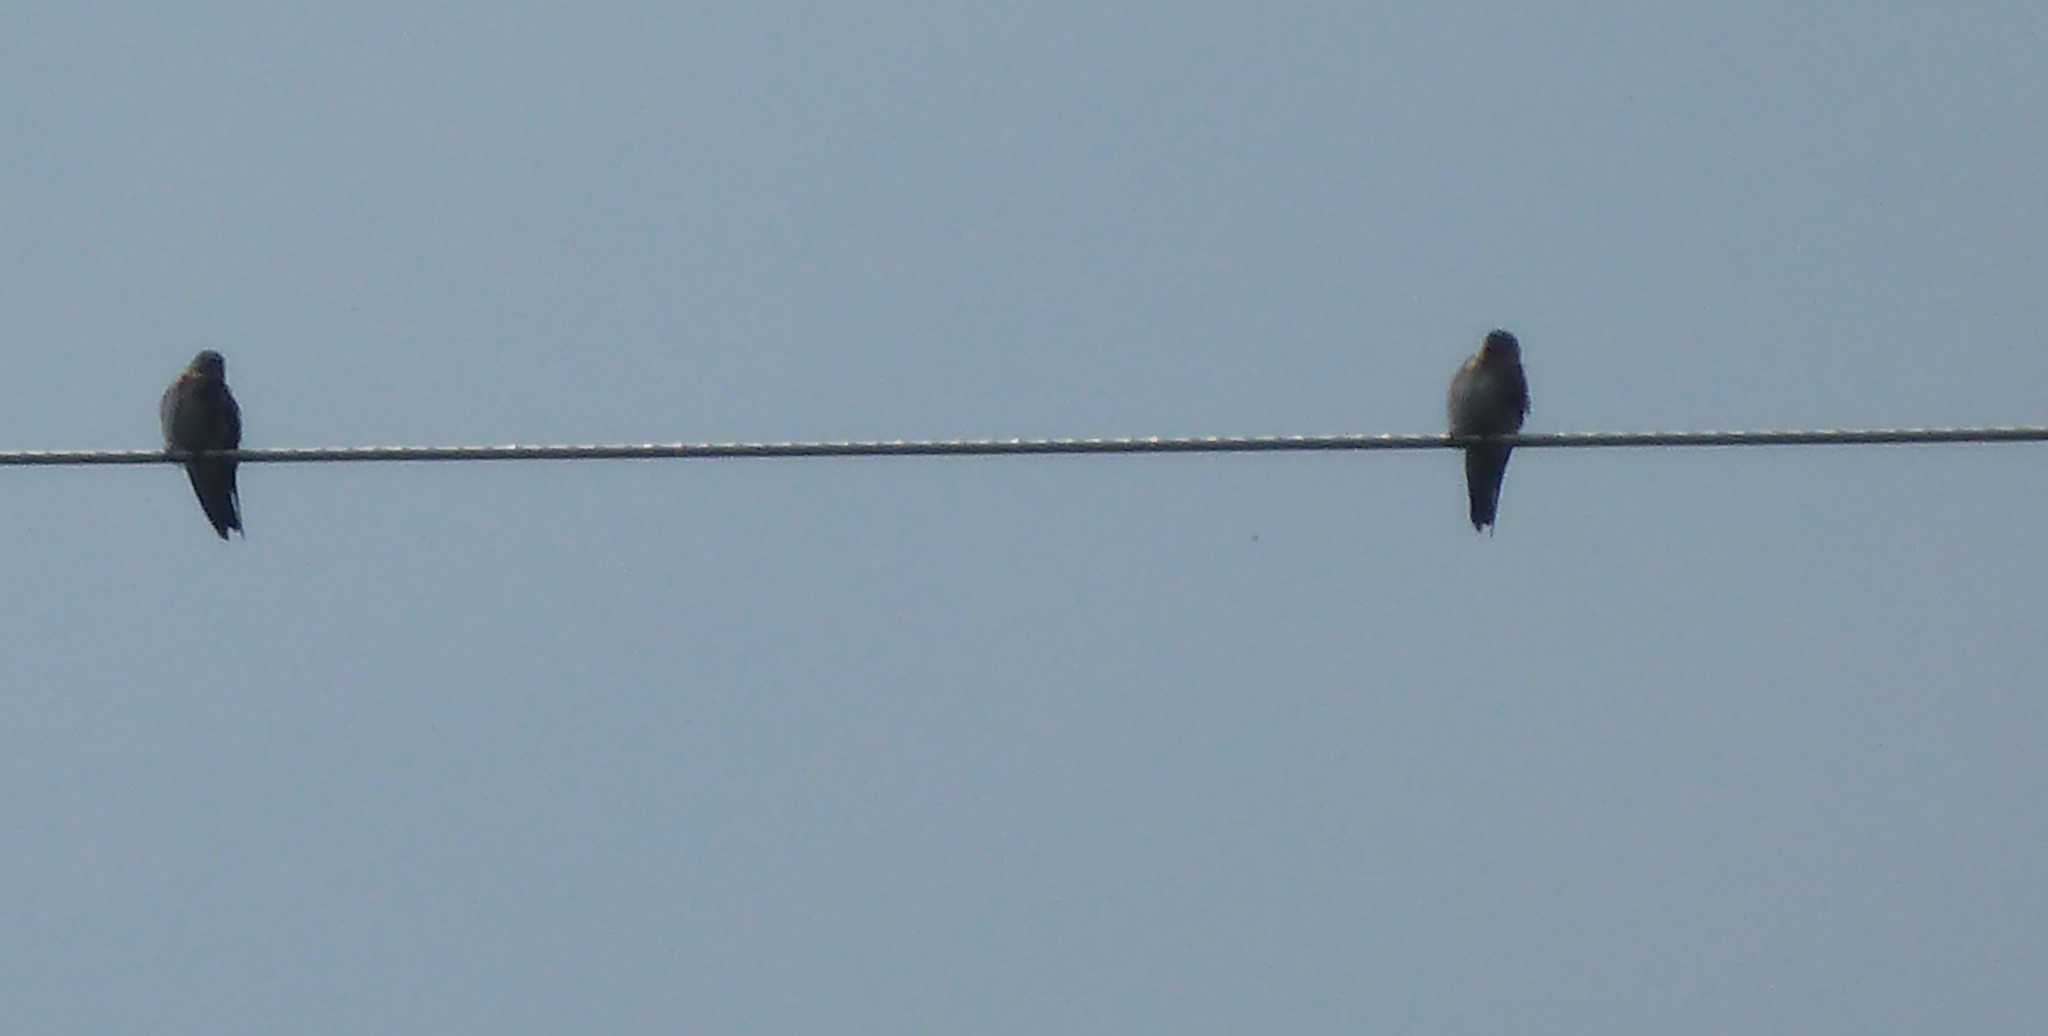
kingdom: Animalia
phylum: Chordata
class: Aves
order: Passeriformes
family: Hirundinidae
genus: Hirundo
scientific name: Hirundo rustica
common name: Barn swallow
